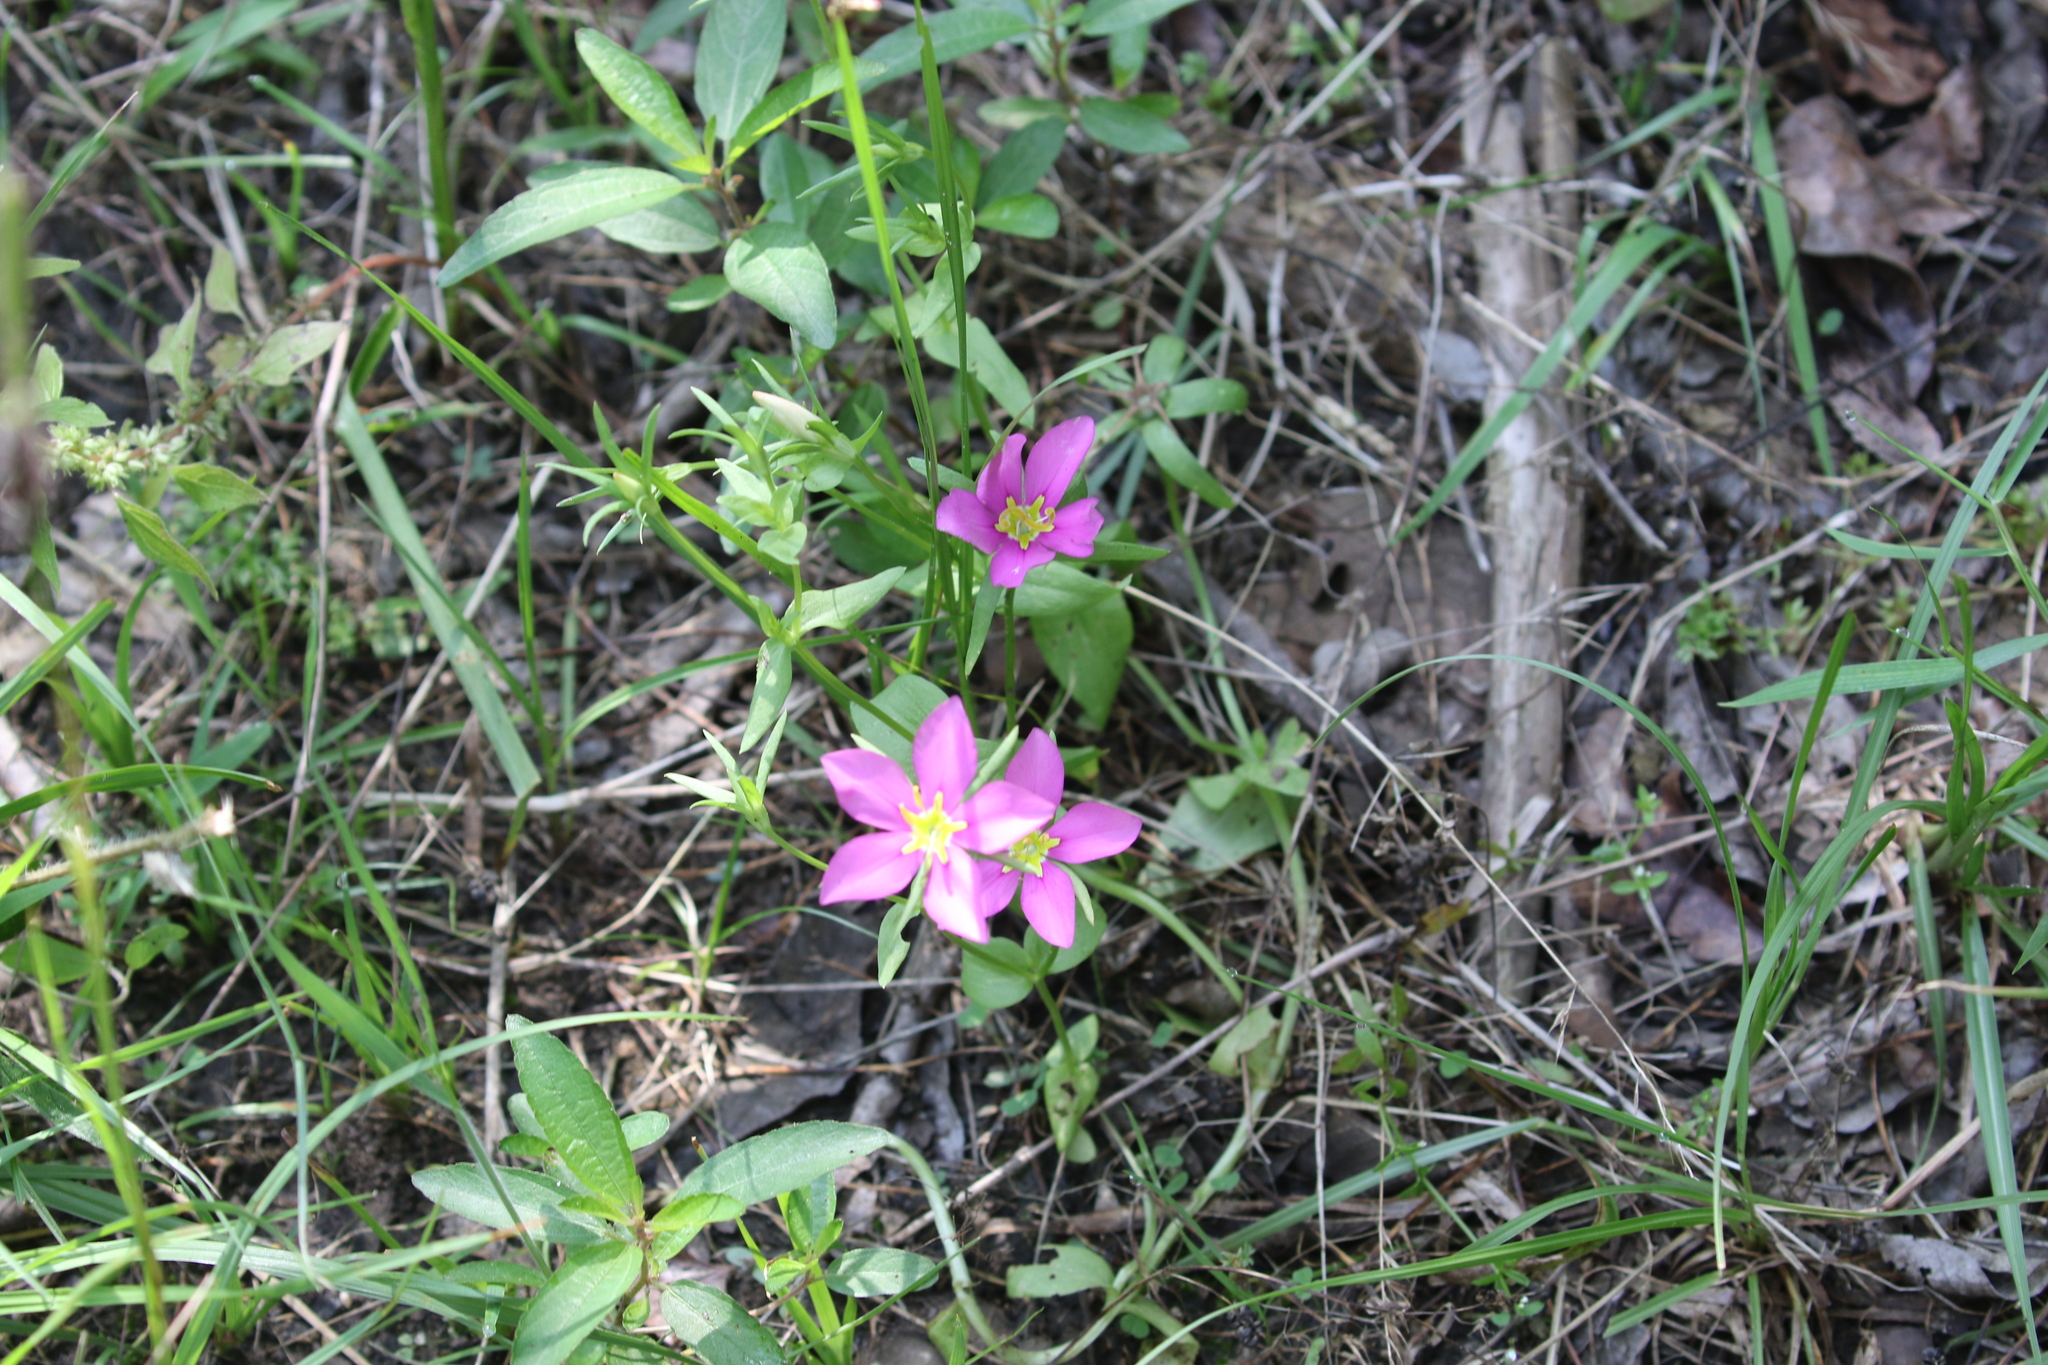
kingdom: Plantae
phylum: Tracheophyta
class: Magnoliopsida
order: Gentianales
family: Gentianaceae
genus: Sabatia
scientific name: Sabatia campestris
